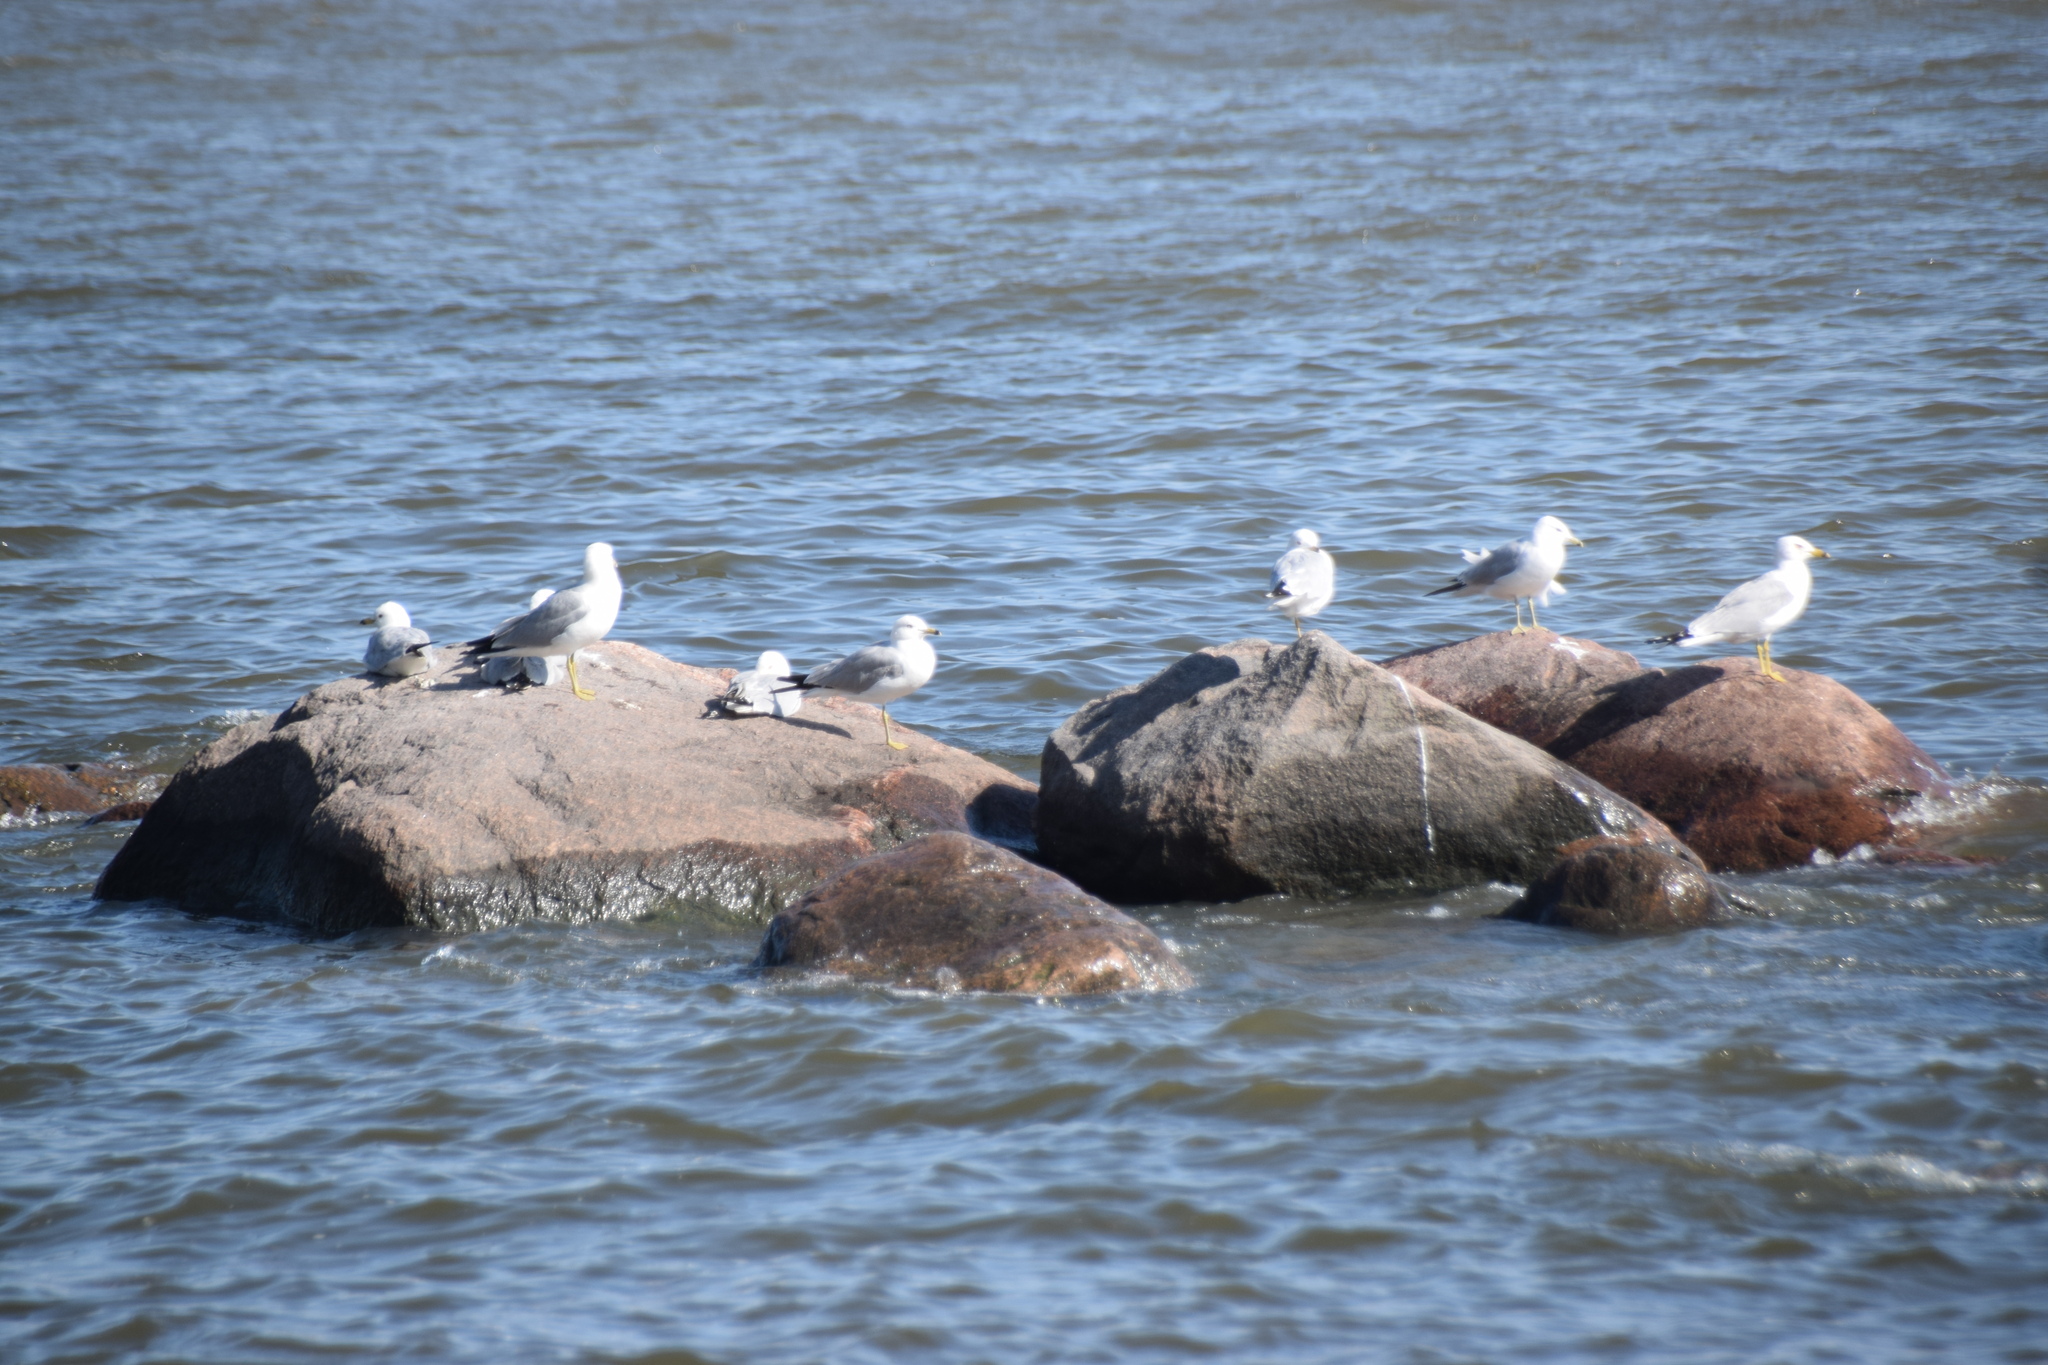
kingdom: Animalia
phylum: Chordata
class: Aves
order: Charadriiformes
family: Laridae
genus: Larus
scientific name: Larus delawarensis
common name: Ring-billed gull
